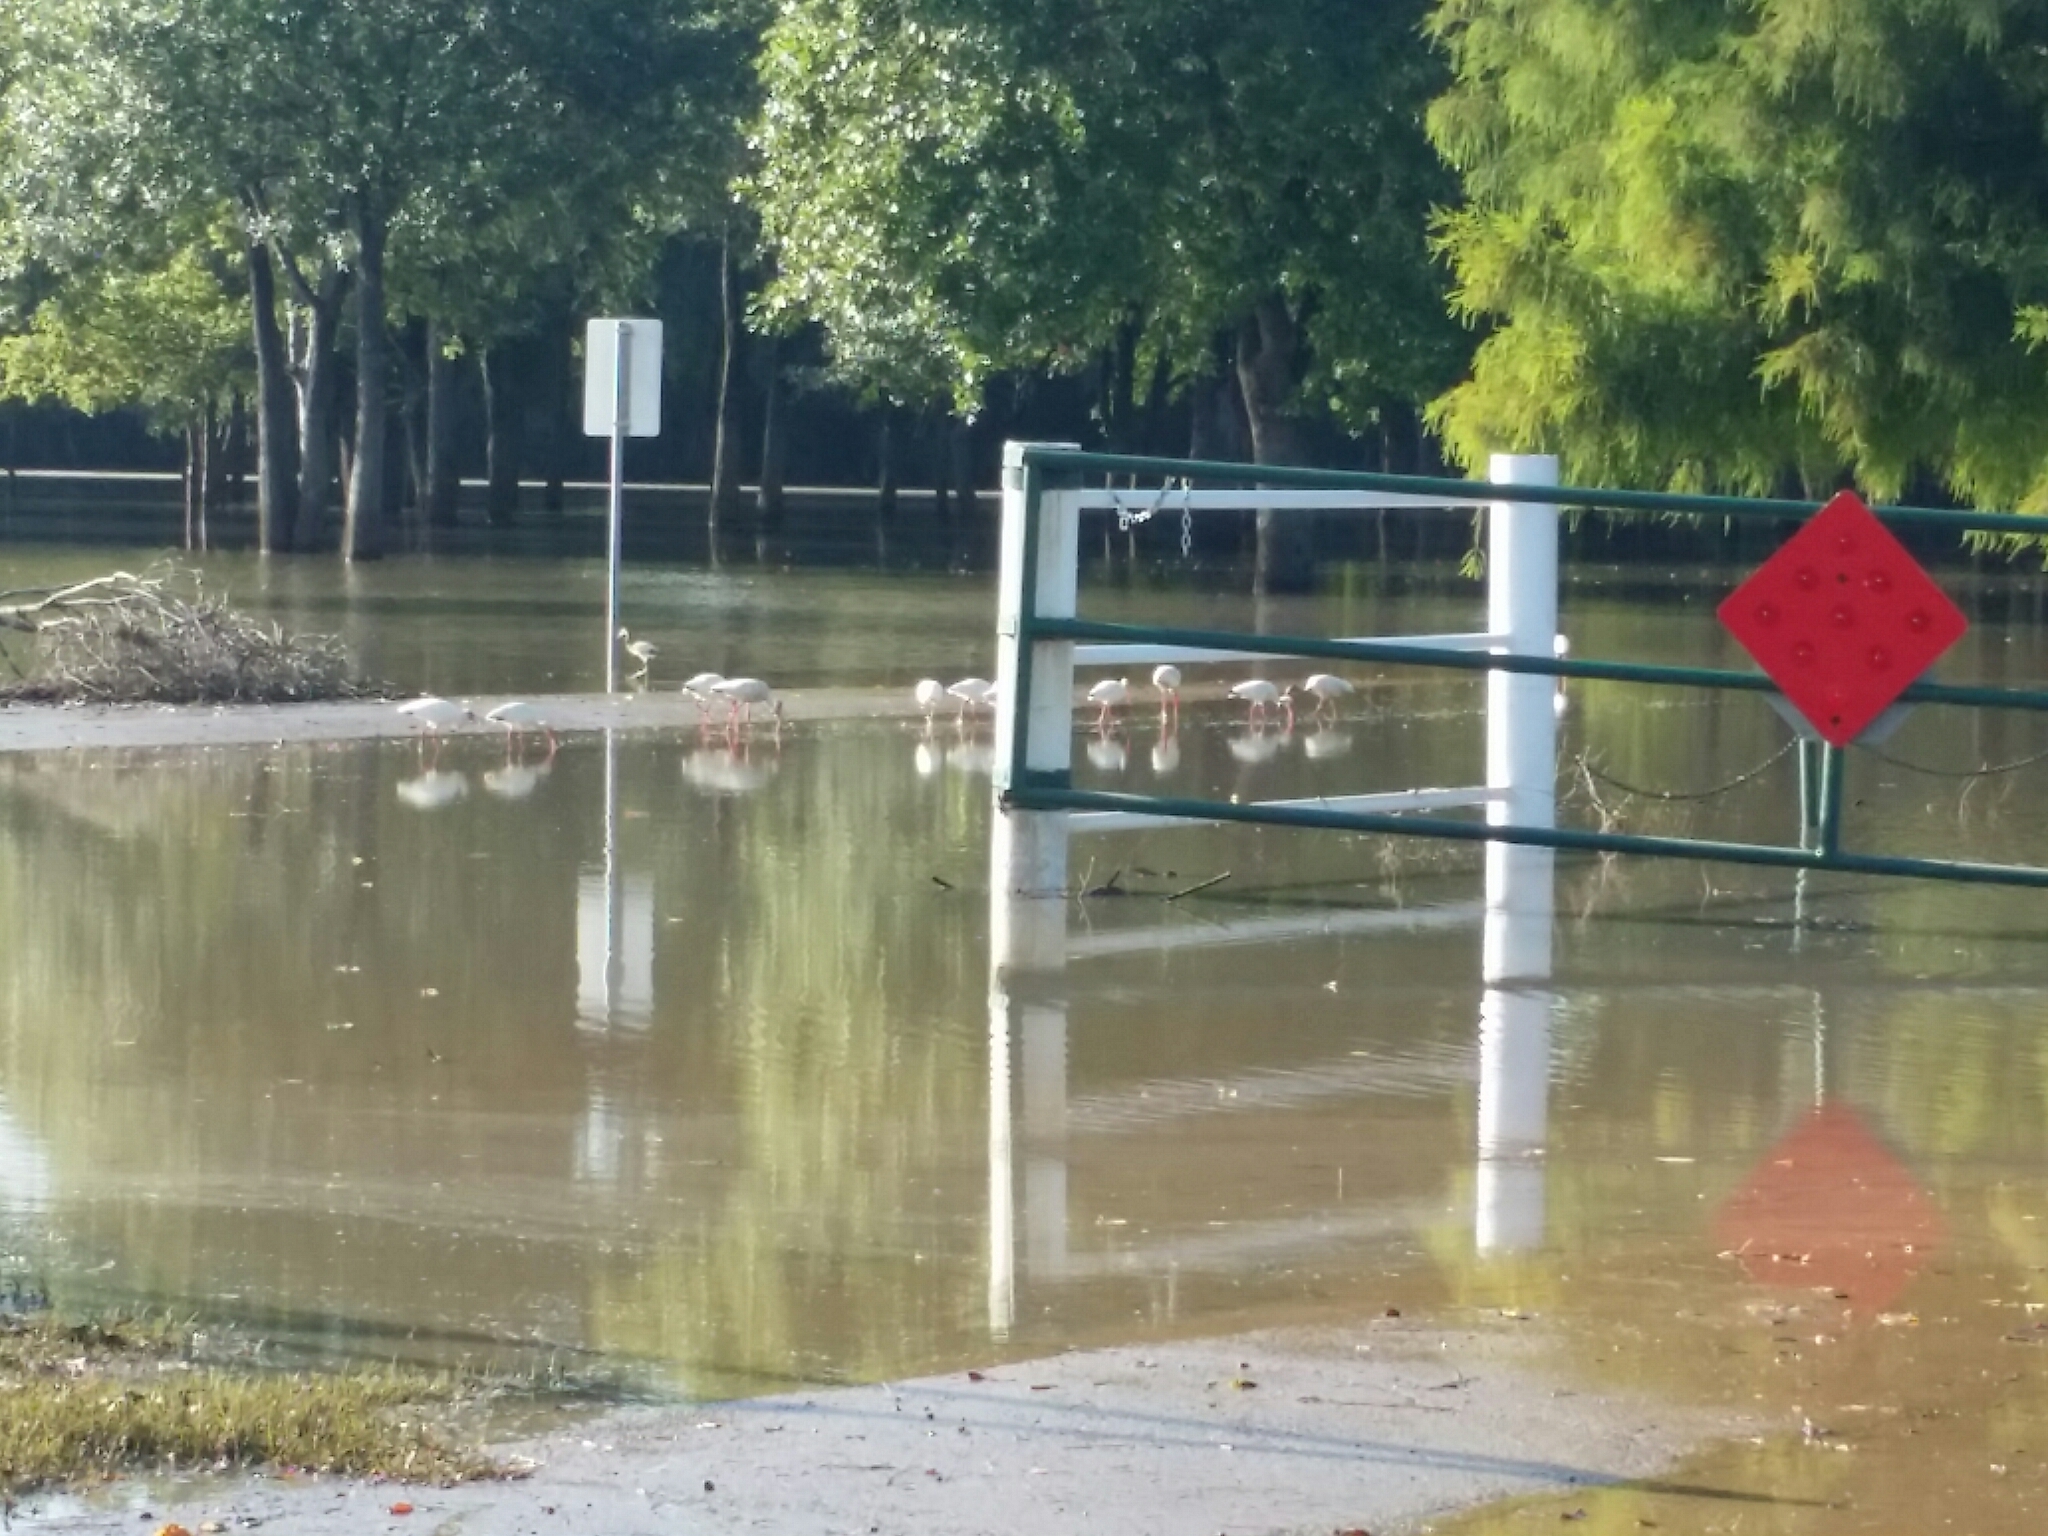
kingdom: Animalia
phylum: Chordata
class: Aves
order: Pelecaniformes
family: Threskiornithidae
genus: Eudocimus
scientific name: Eudocimus albus
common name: White ibis
